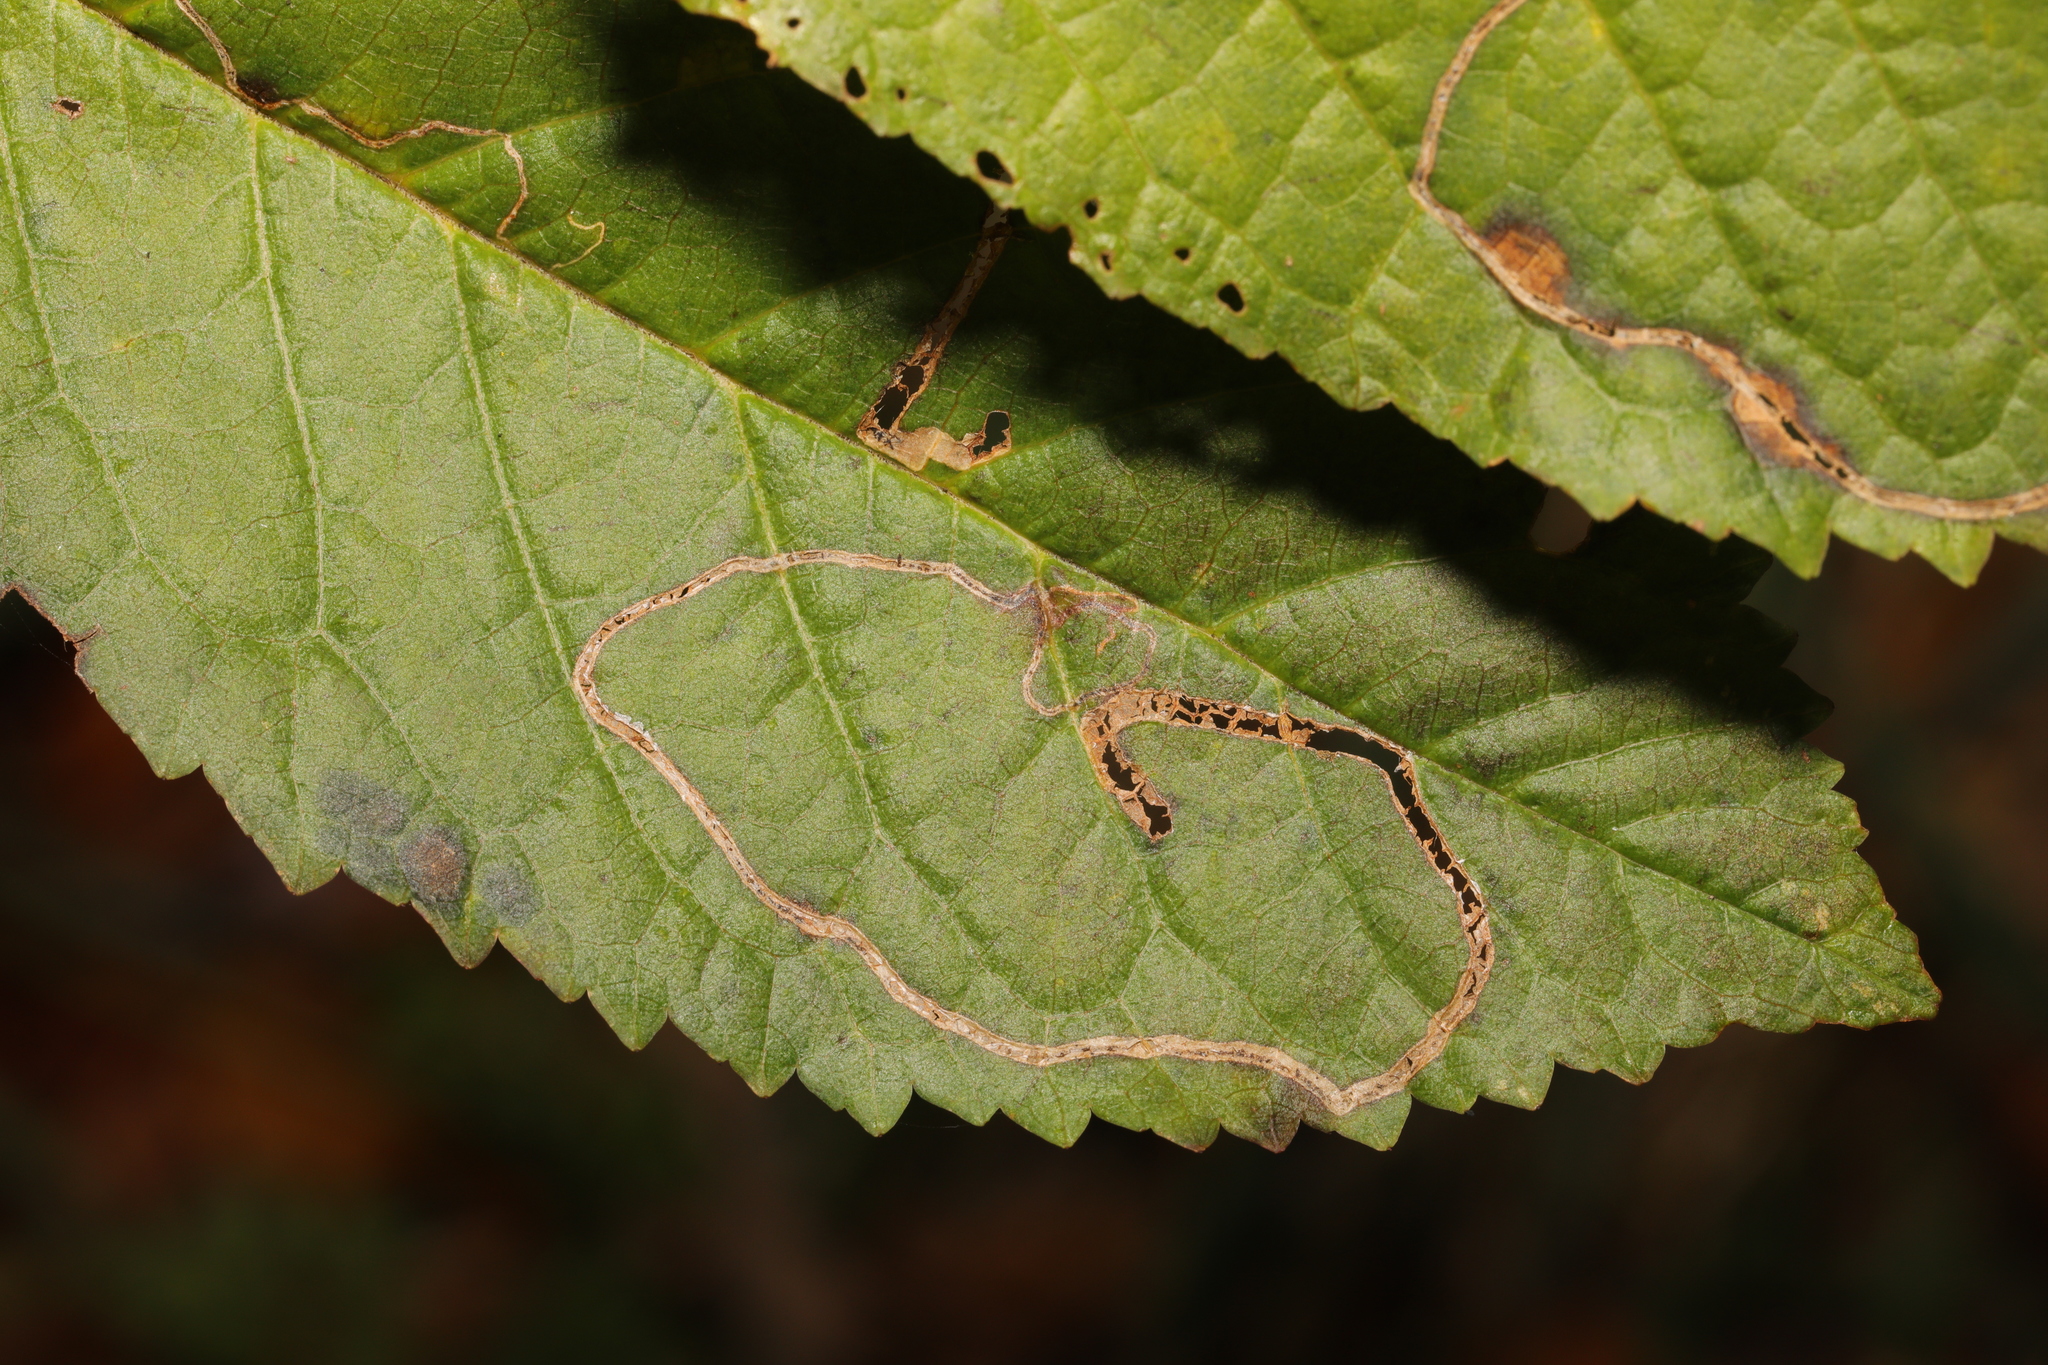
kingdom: Animalia
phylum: Arthropoda
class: Insecta
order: Lepidoptera
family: Lyonetiidae
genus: Lyonetia
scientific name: Lyonetia clerkella
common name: Apple leaf miner
